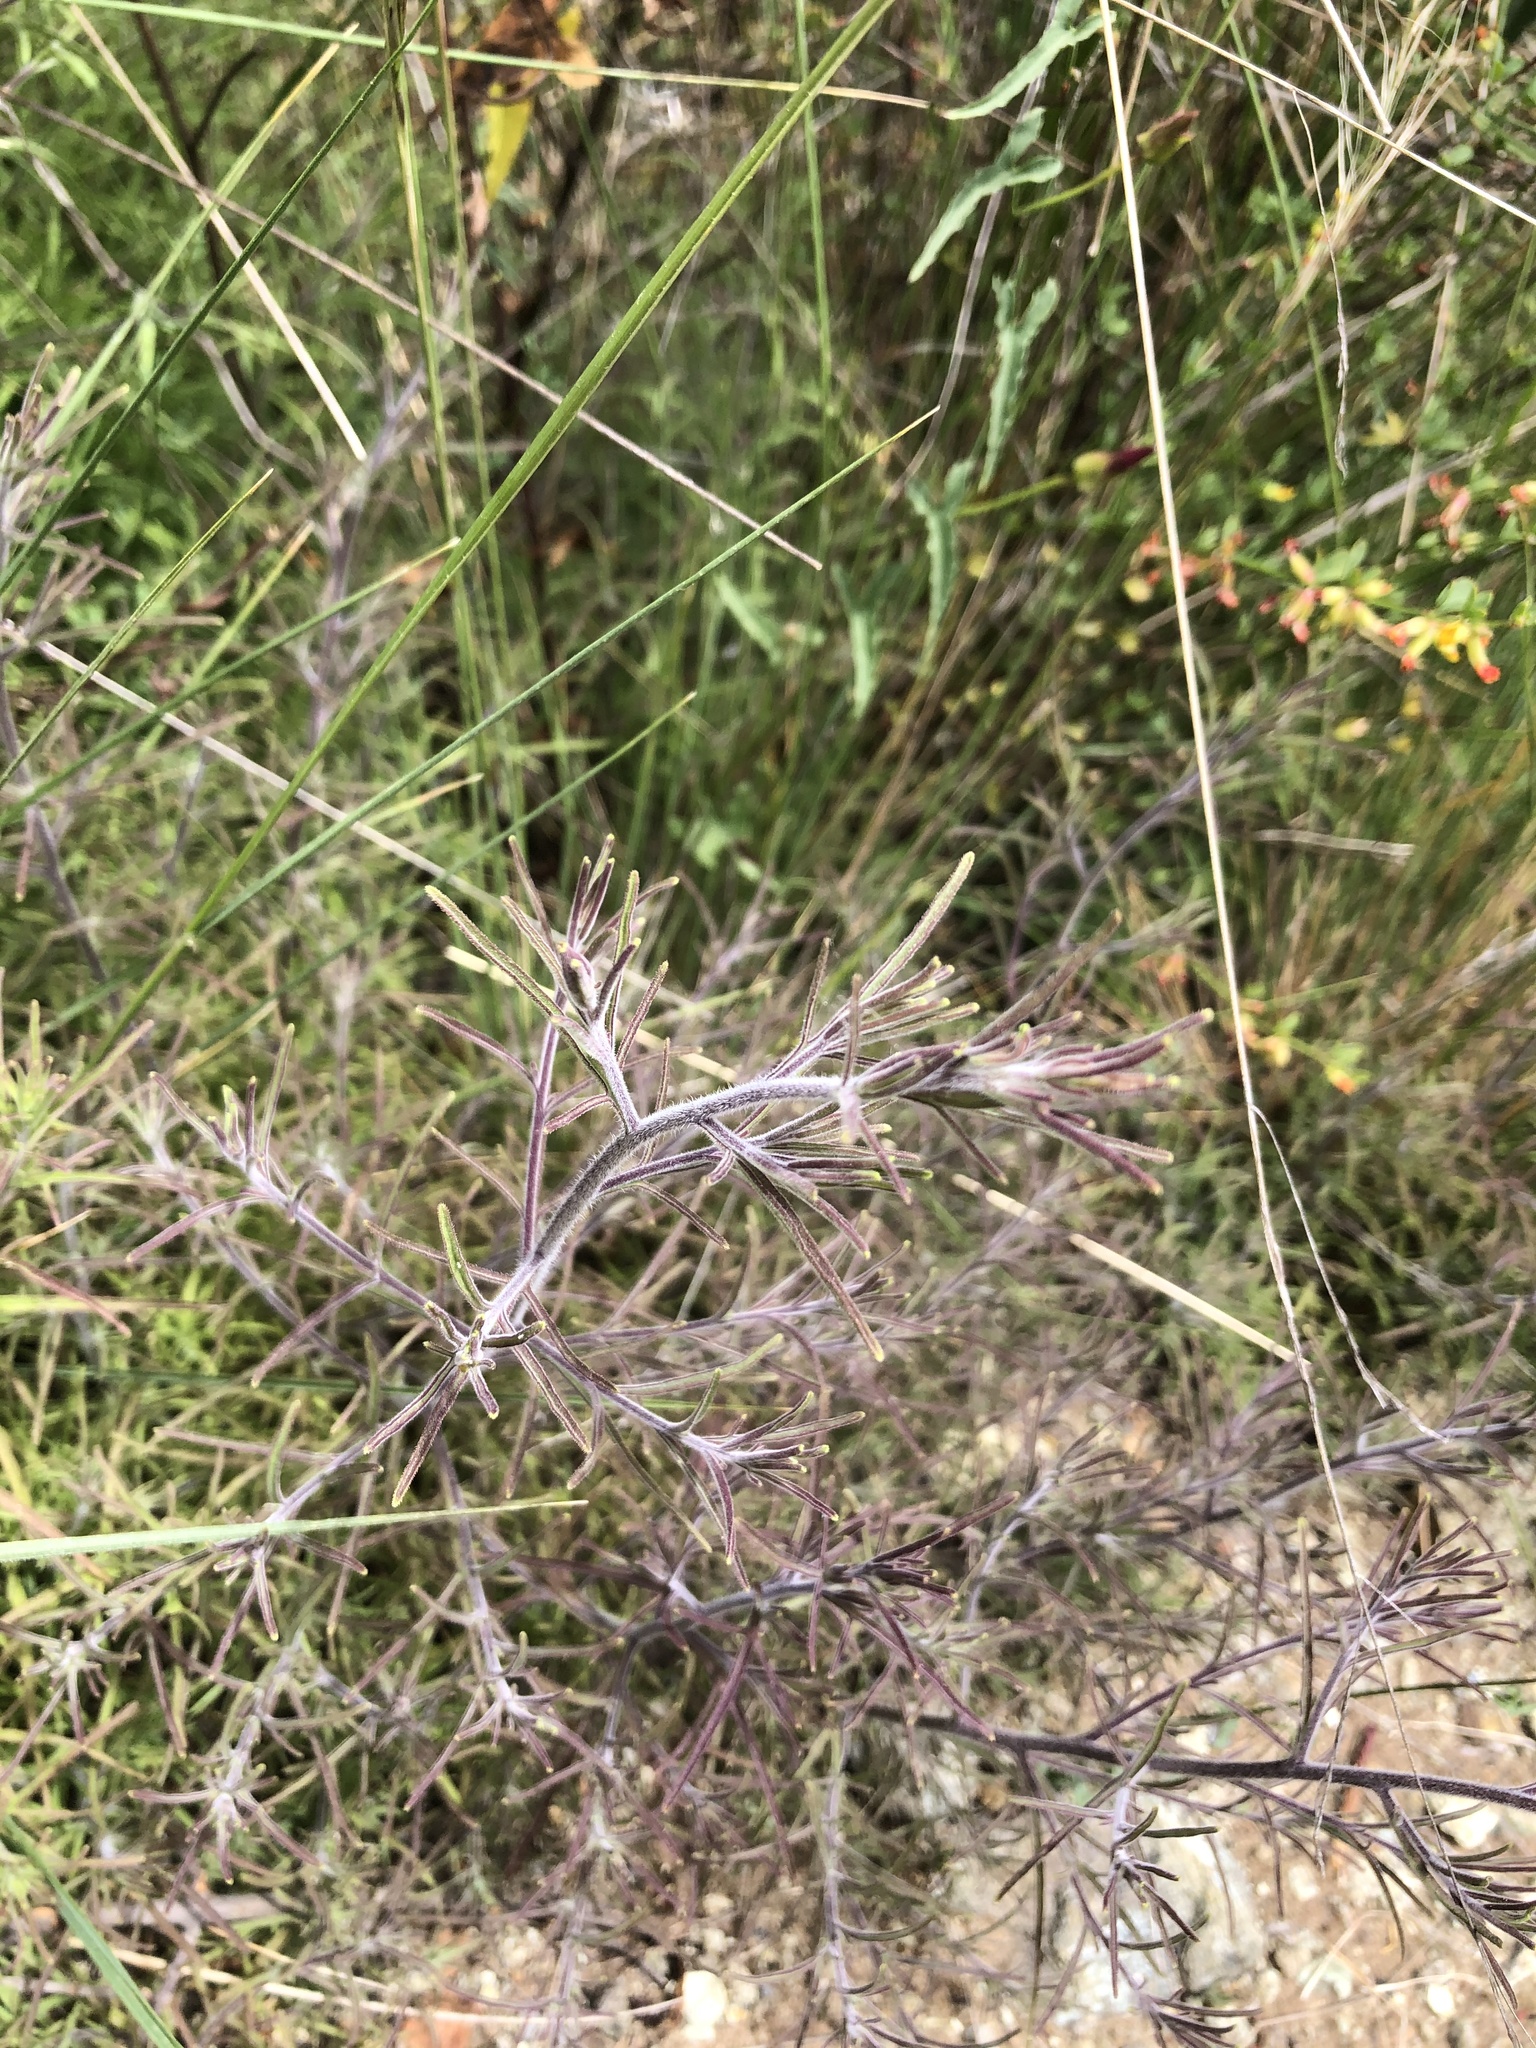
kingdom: Plantae
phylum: Tracheophyta
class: Magnoliopsida
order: Lamiales
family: Orobanchaceae
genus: Cordylanthus
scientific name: Cordylanthus rigidus
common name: Stiff-branch bird's-beak
